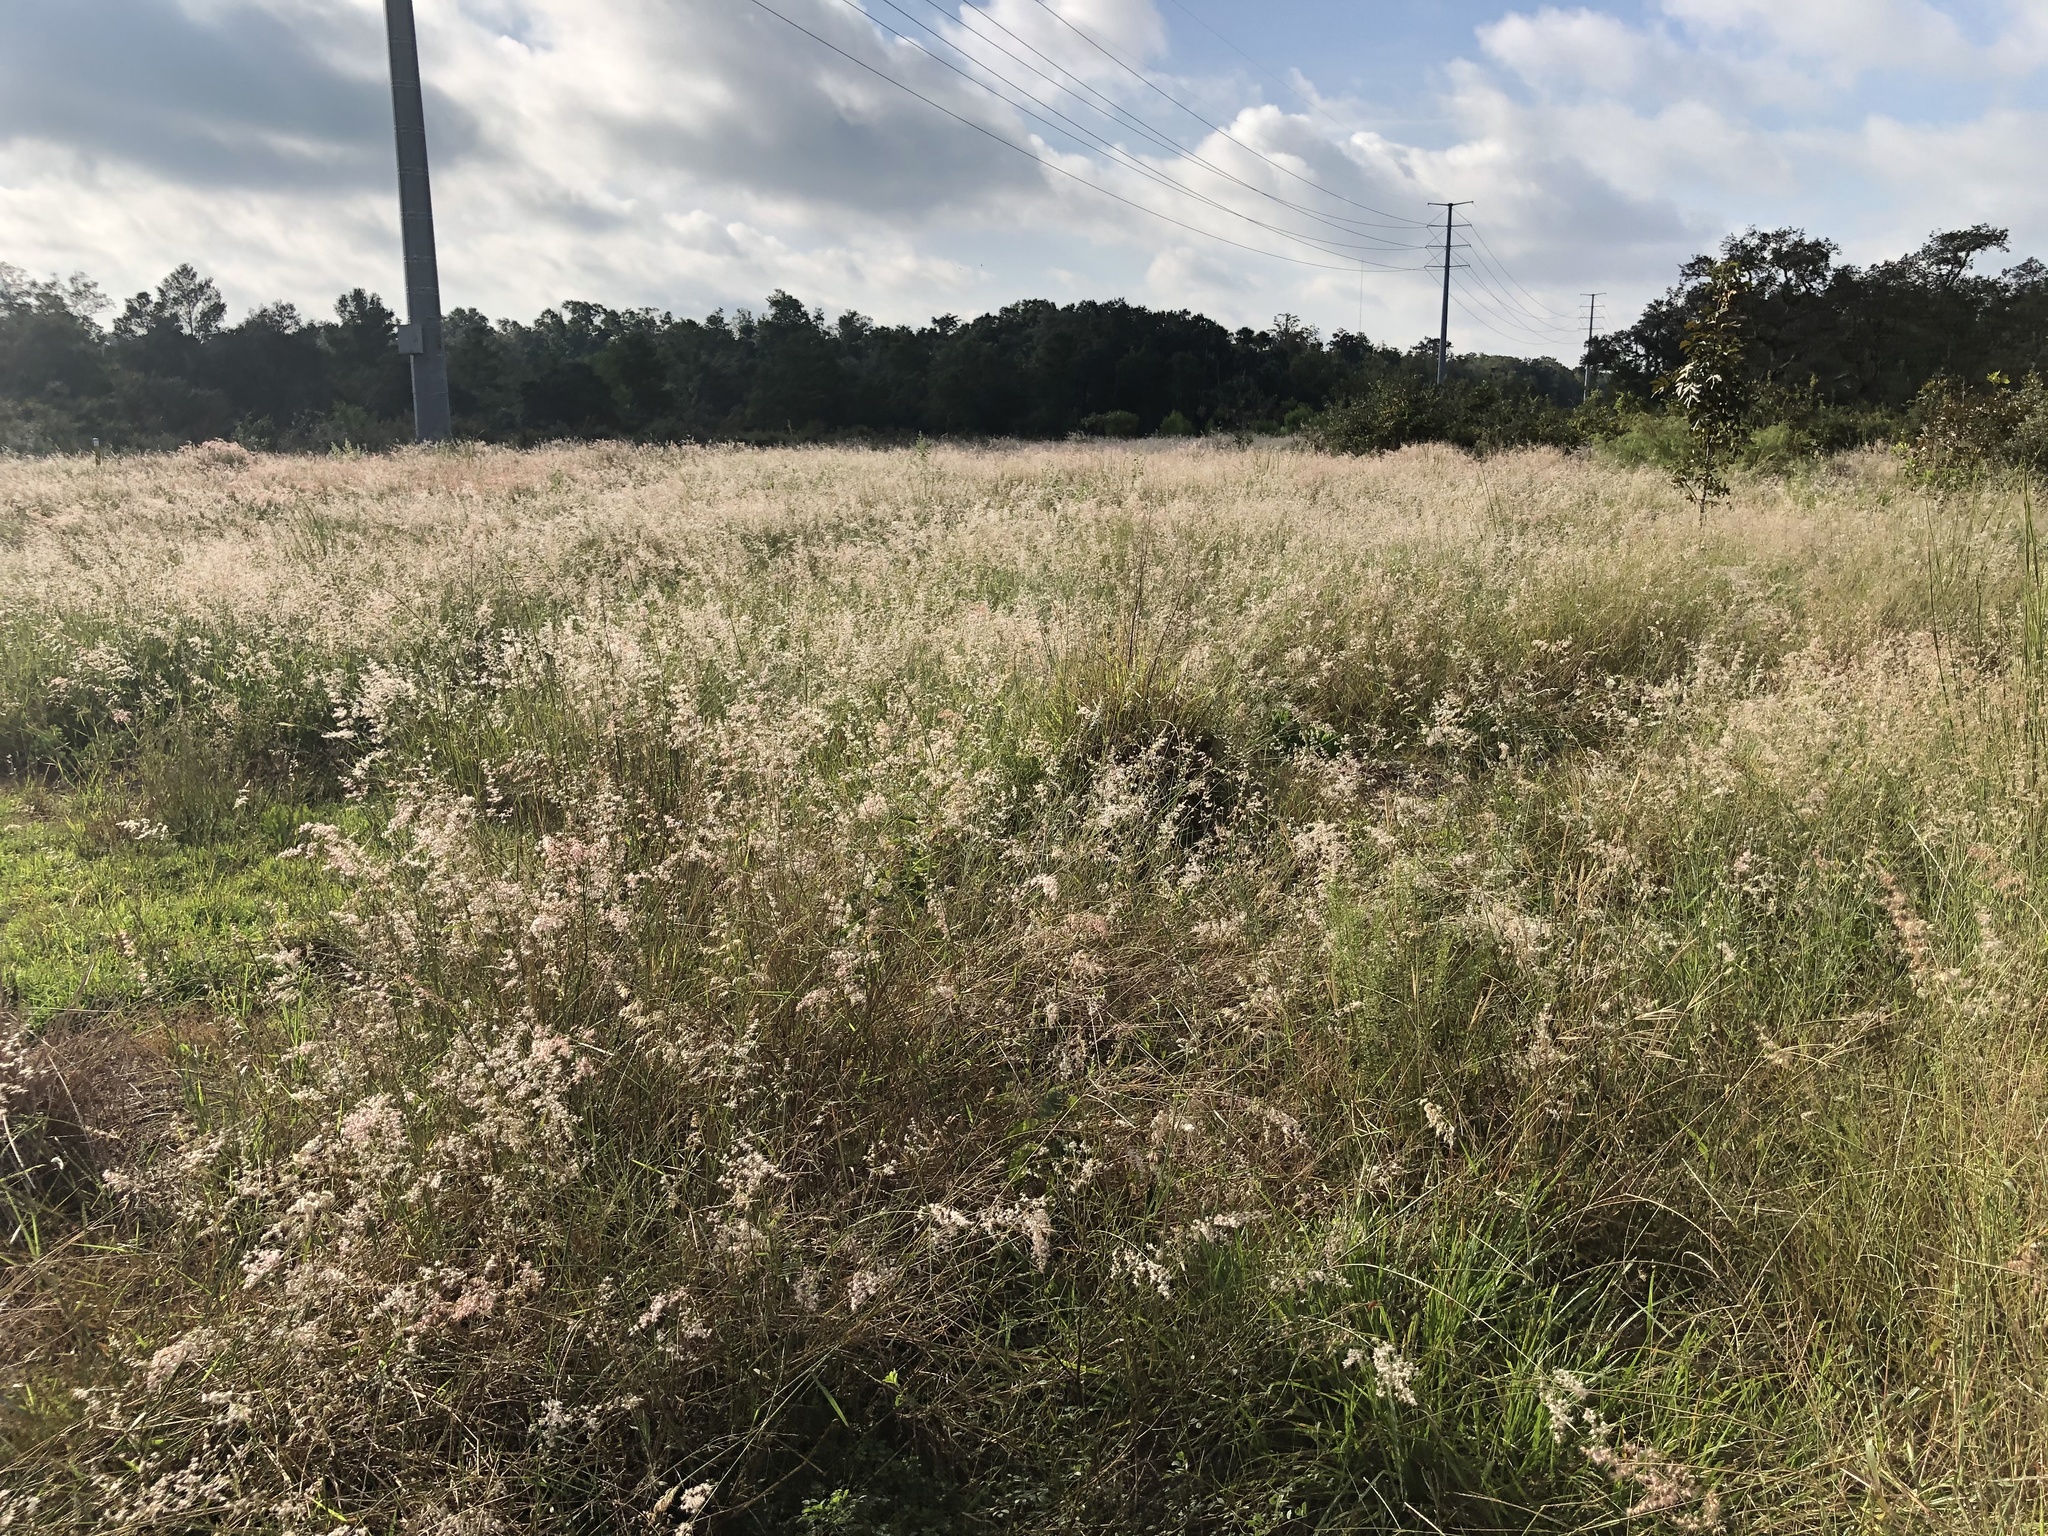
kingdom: Plantae
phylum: Tracheophyta
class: Liliopsida
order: Poales
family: Poaceae
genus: Melinis
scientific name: Melinis repens
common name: Rose natal grass
